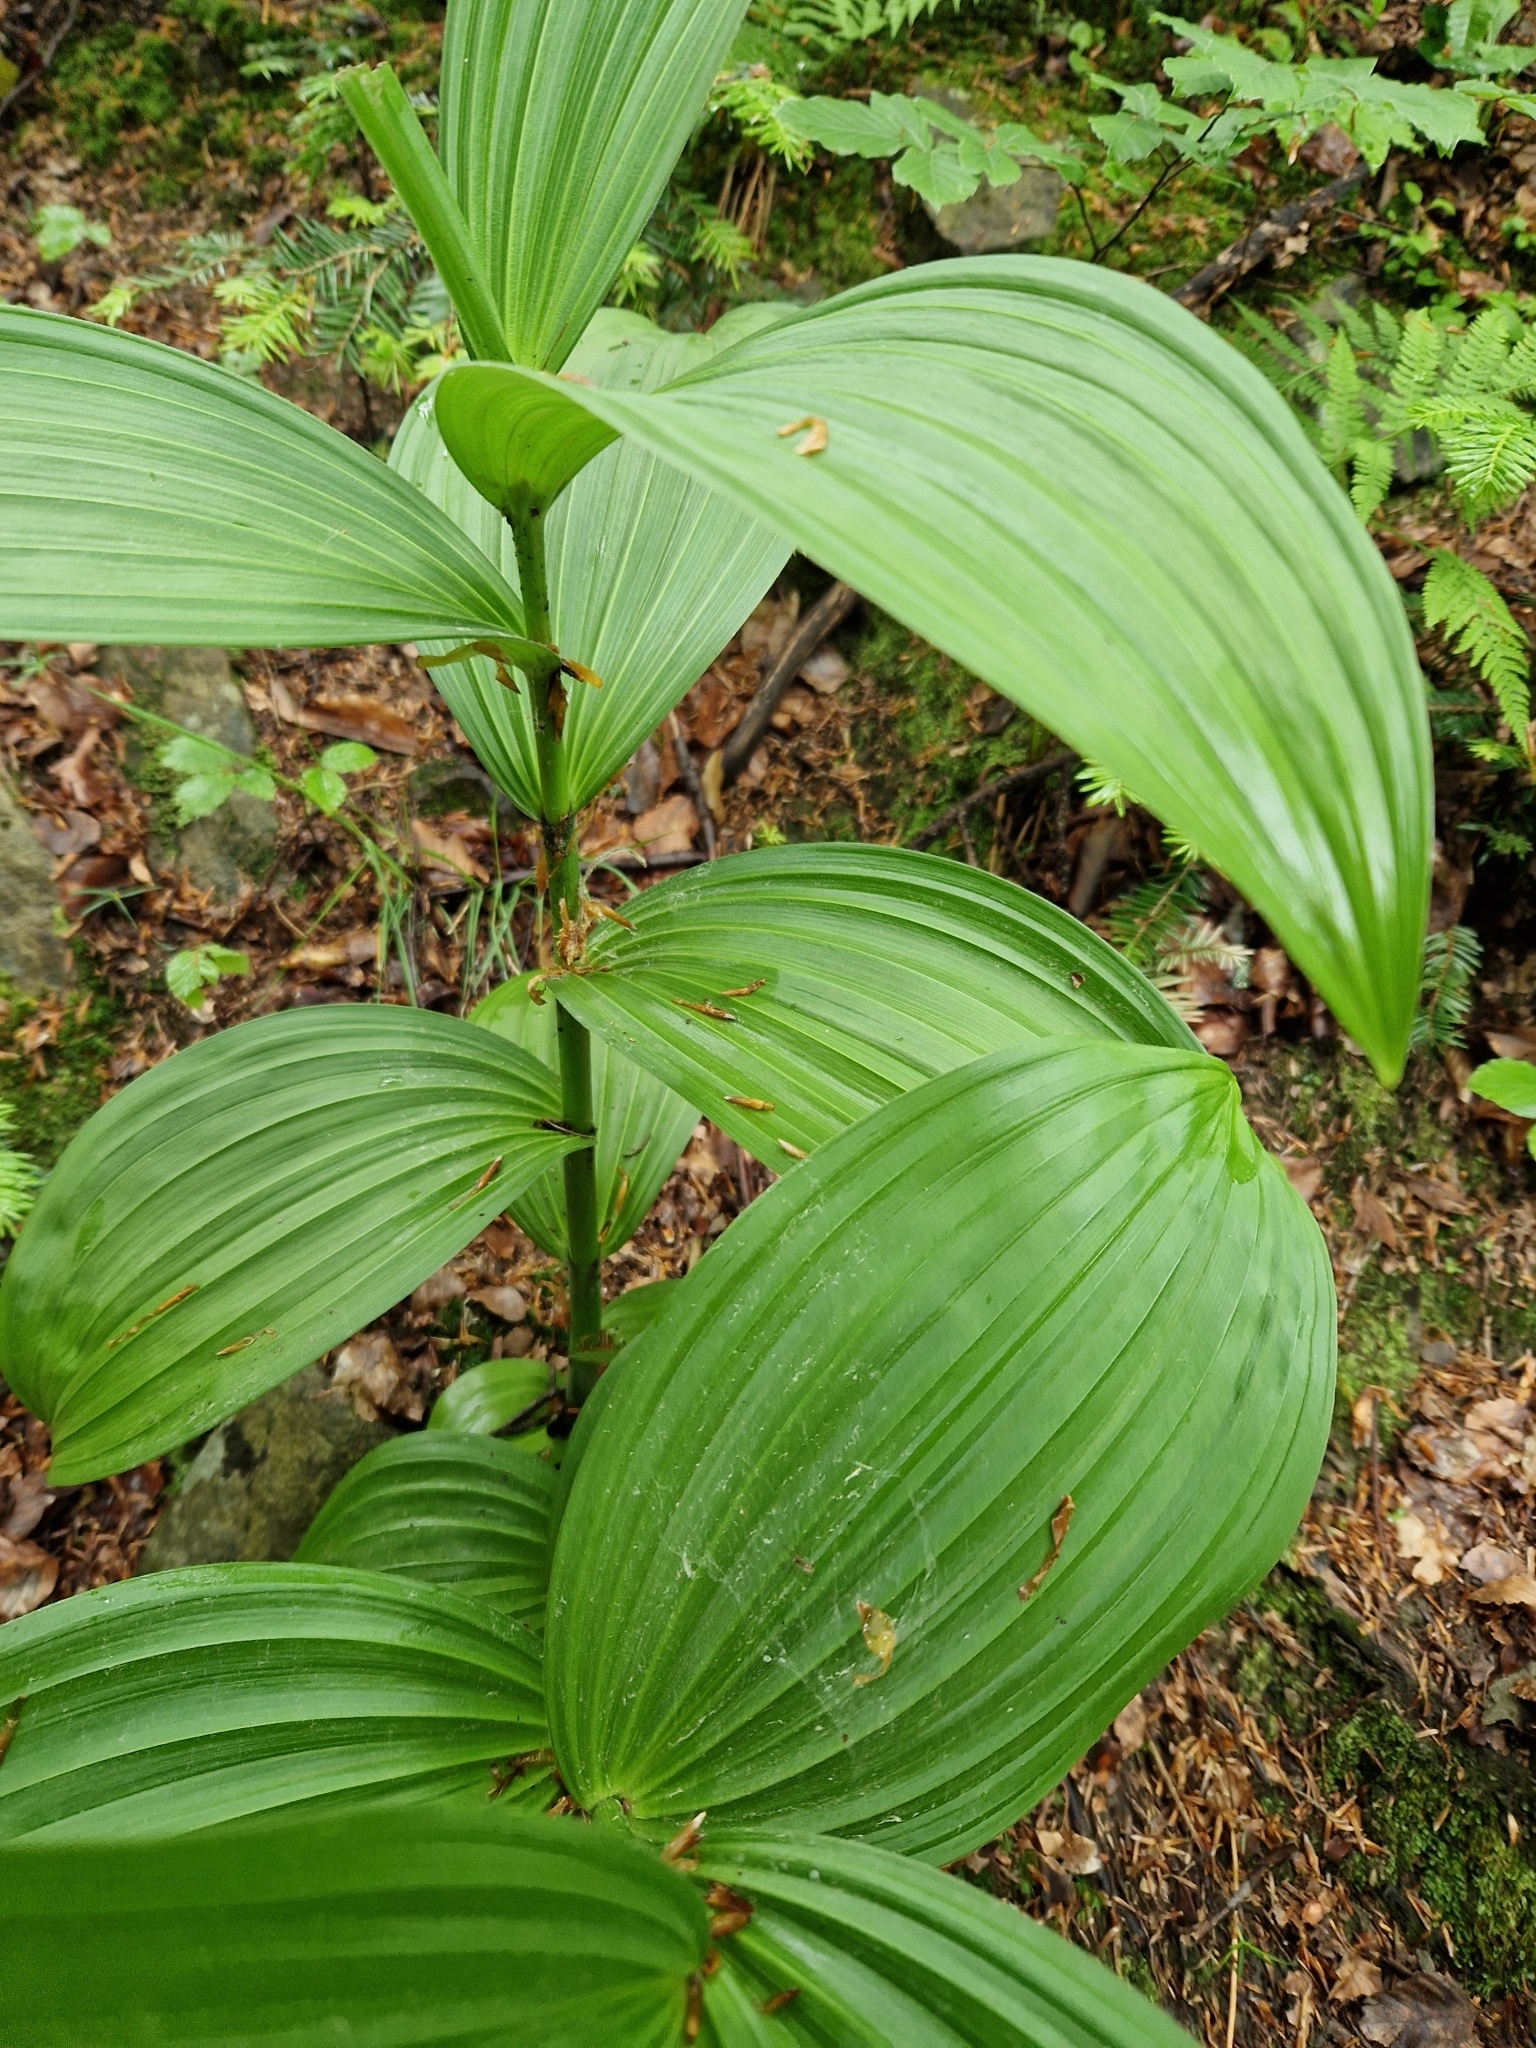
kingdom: Plantae
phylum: Tracheophyta
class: Liliopsida
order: Liliales
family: Melanthiaceae
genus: Veratrum
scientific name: Veratrum lobelianum
